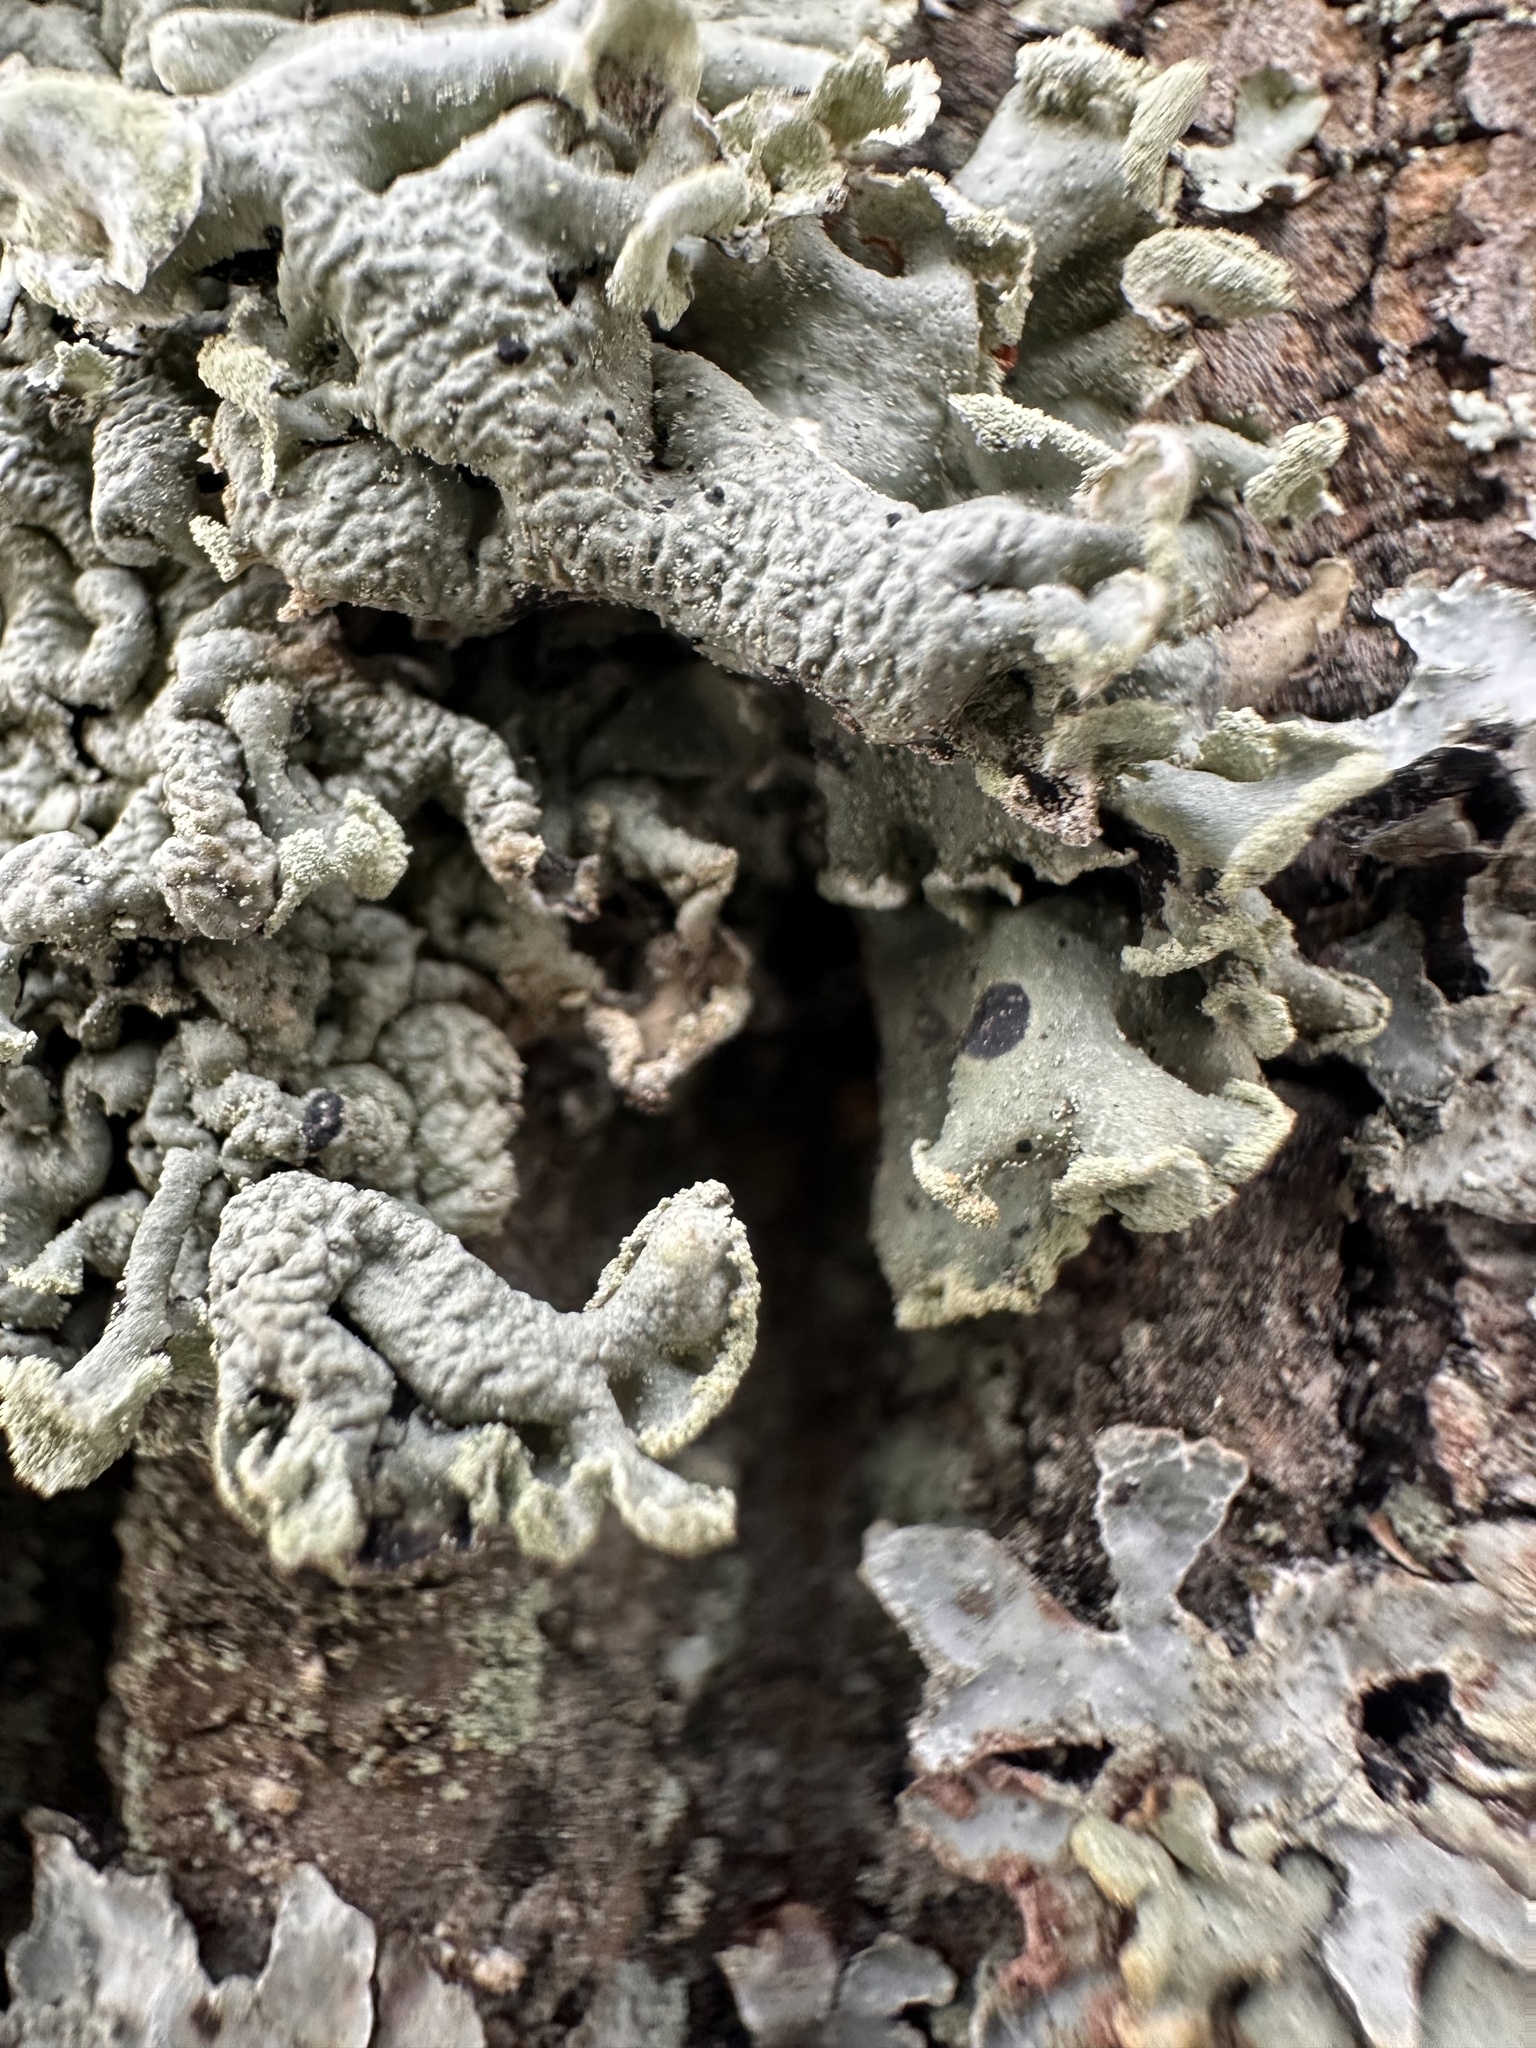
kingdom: Fungi
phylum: Ascomycota
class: Lecanoromycetes
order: Lecanorales
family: Parmeliaceae
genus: Hypogymnia
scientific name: Hypogymnia physodes
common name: Dark crottle
